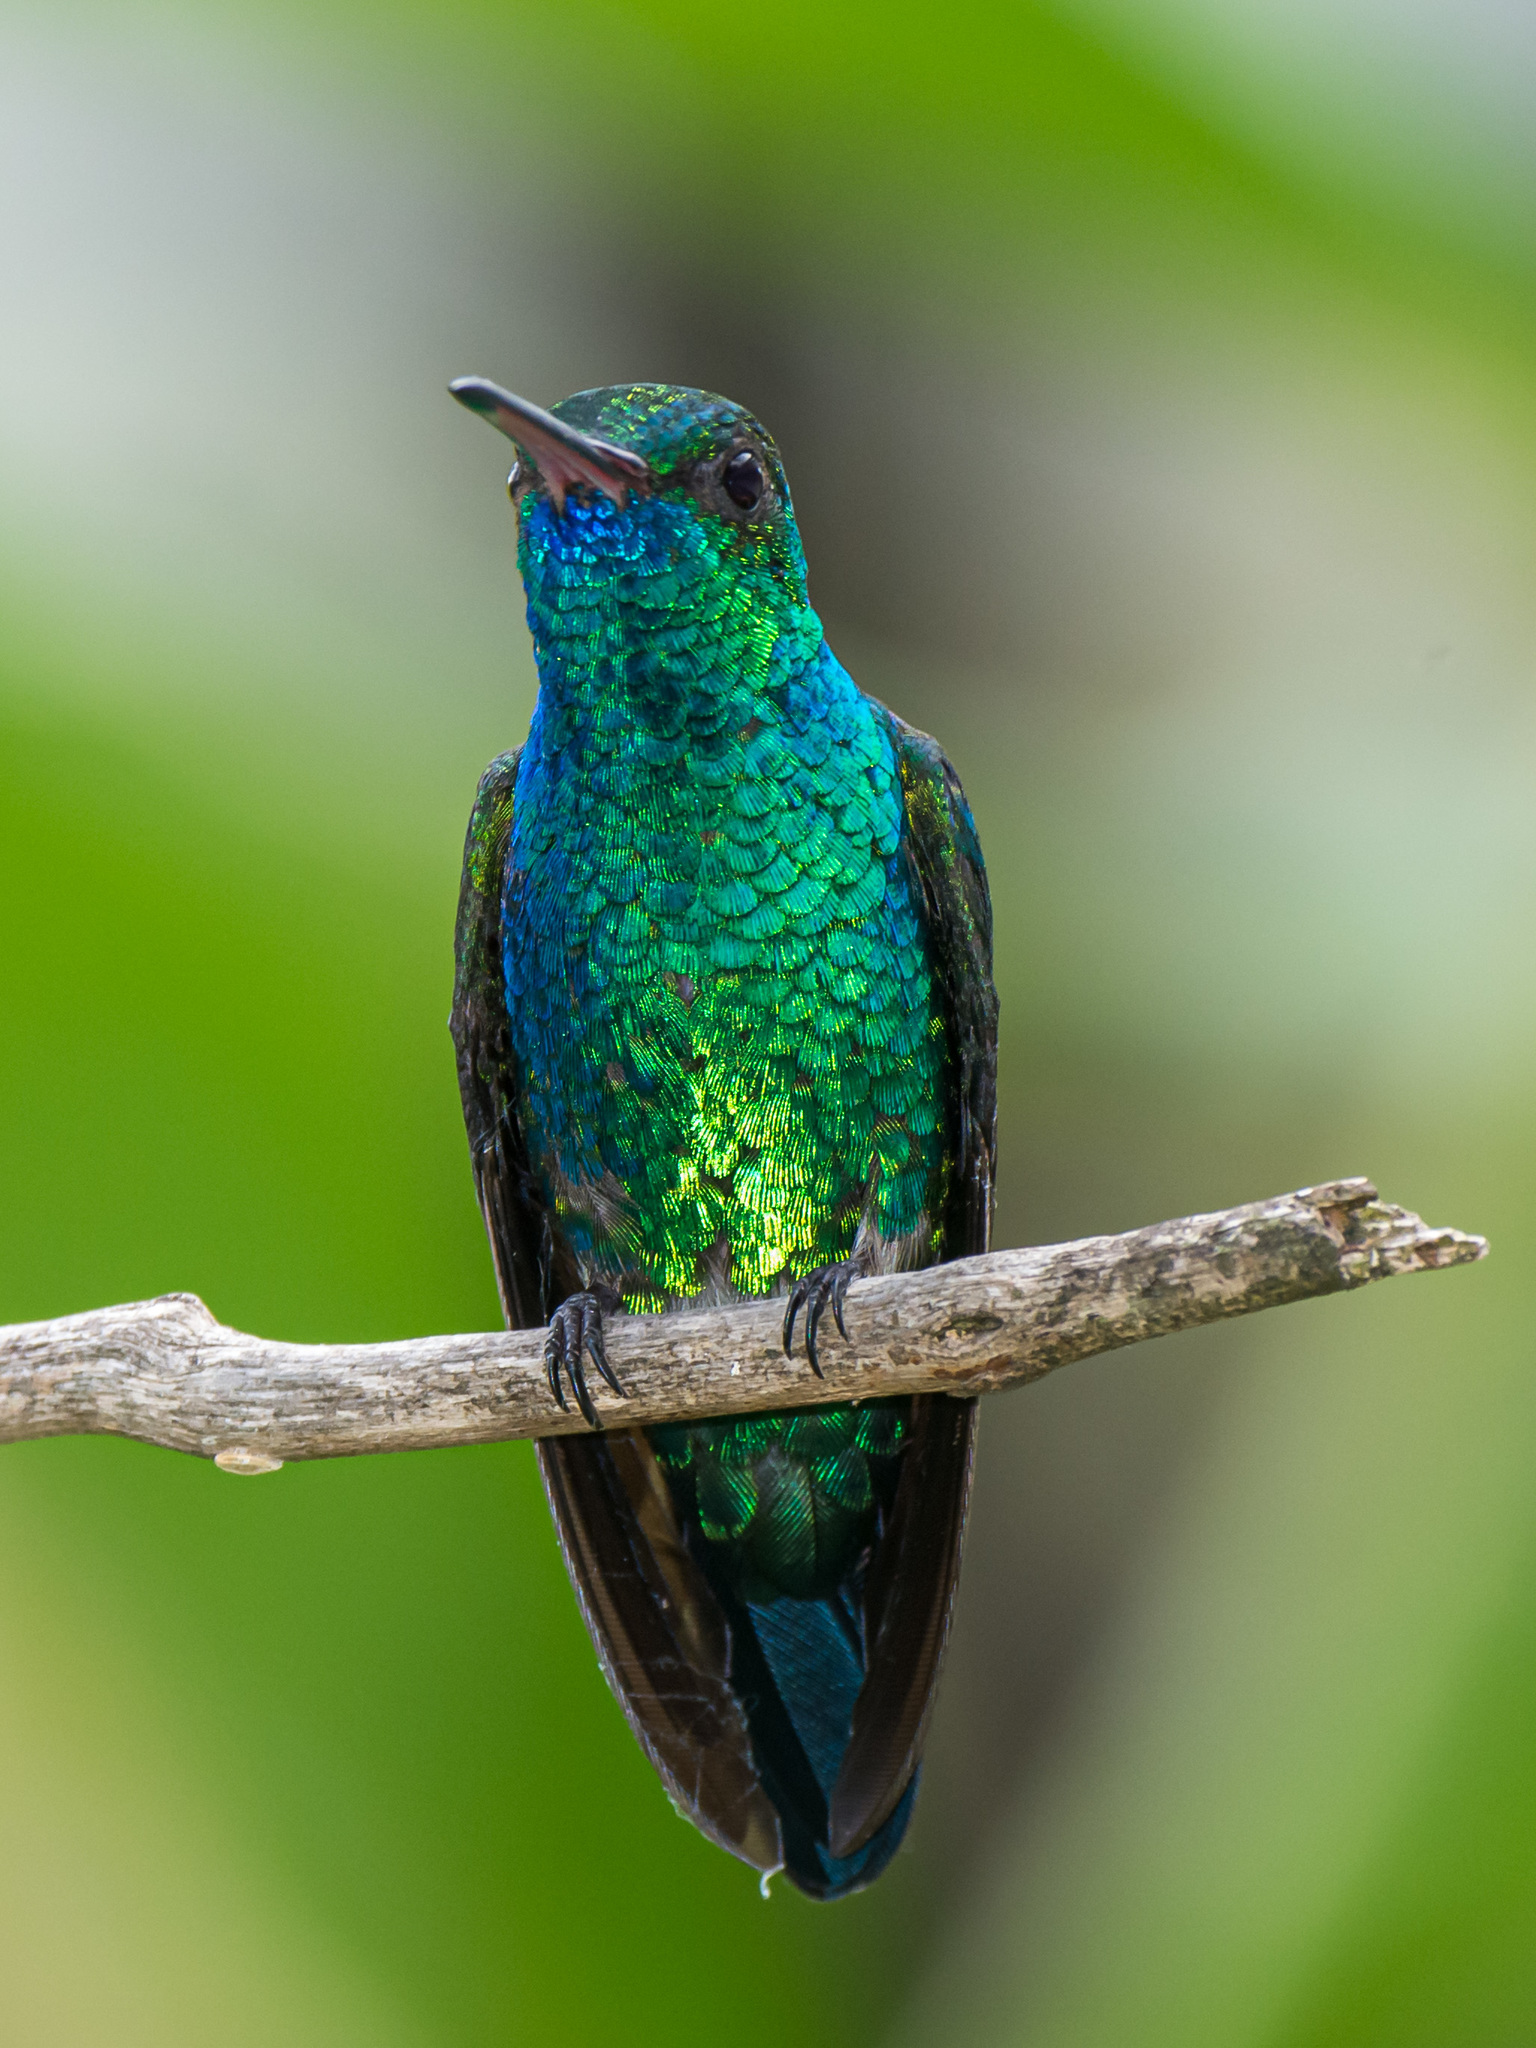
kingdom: Animalia
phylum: Chordata
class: Aves
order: Apodiformes
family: Trochilidae
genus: Chlorostilbon
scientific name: Chlorostilbon mellisugus
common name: Blue-tailed emerald
